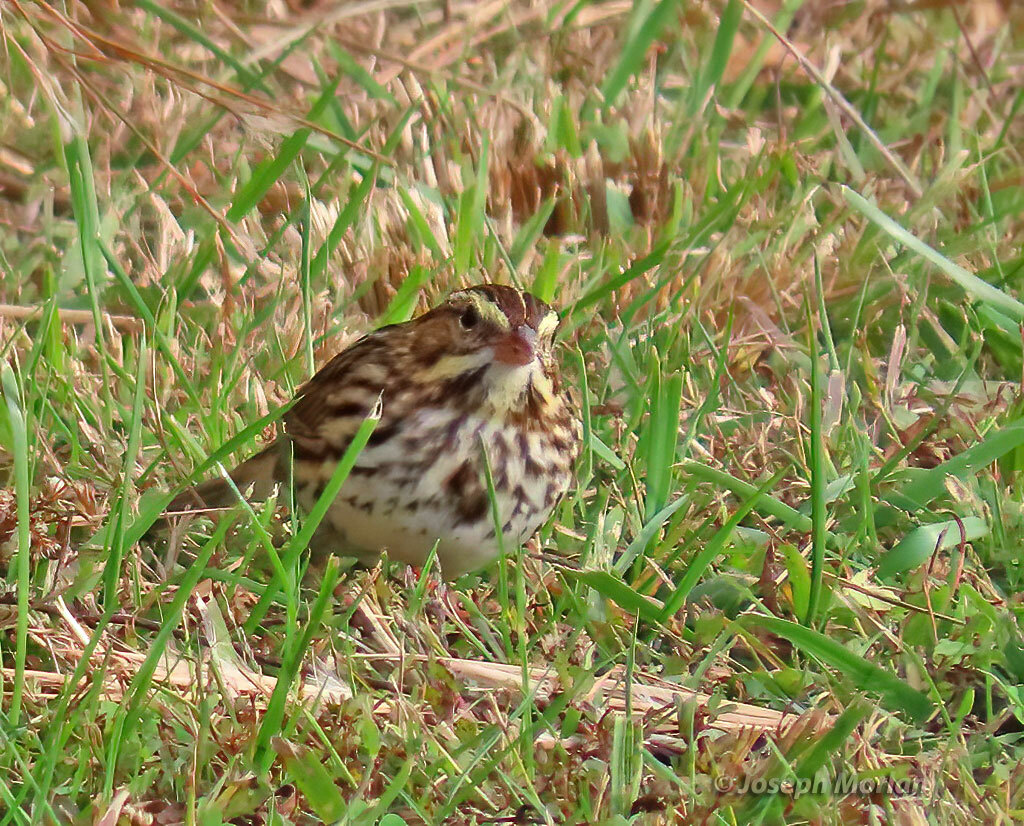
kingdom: Animalia
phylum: Chordata
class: Aves
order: Passeriformes
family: Passerellidae
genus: Passerculus
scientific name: Passerculus sandwichensis
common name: Savannah sparrow
